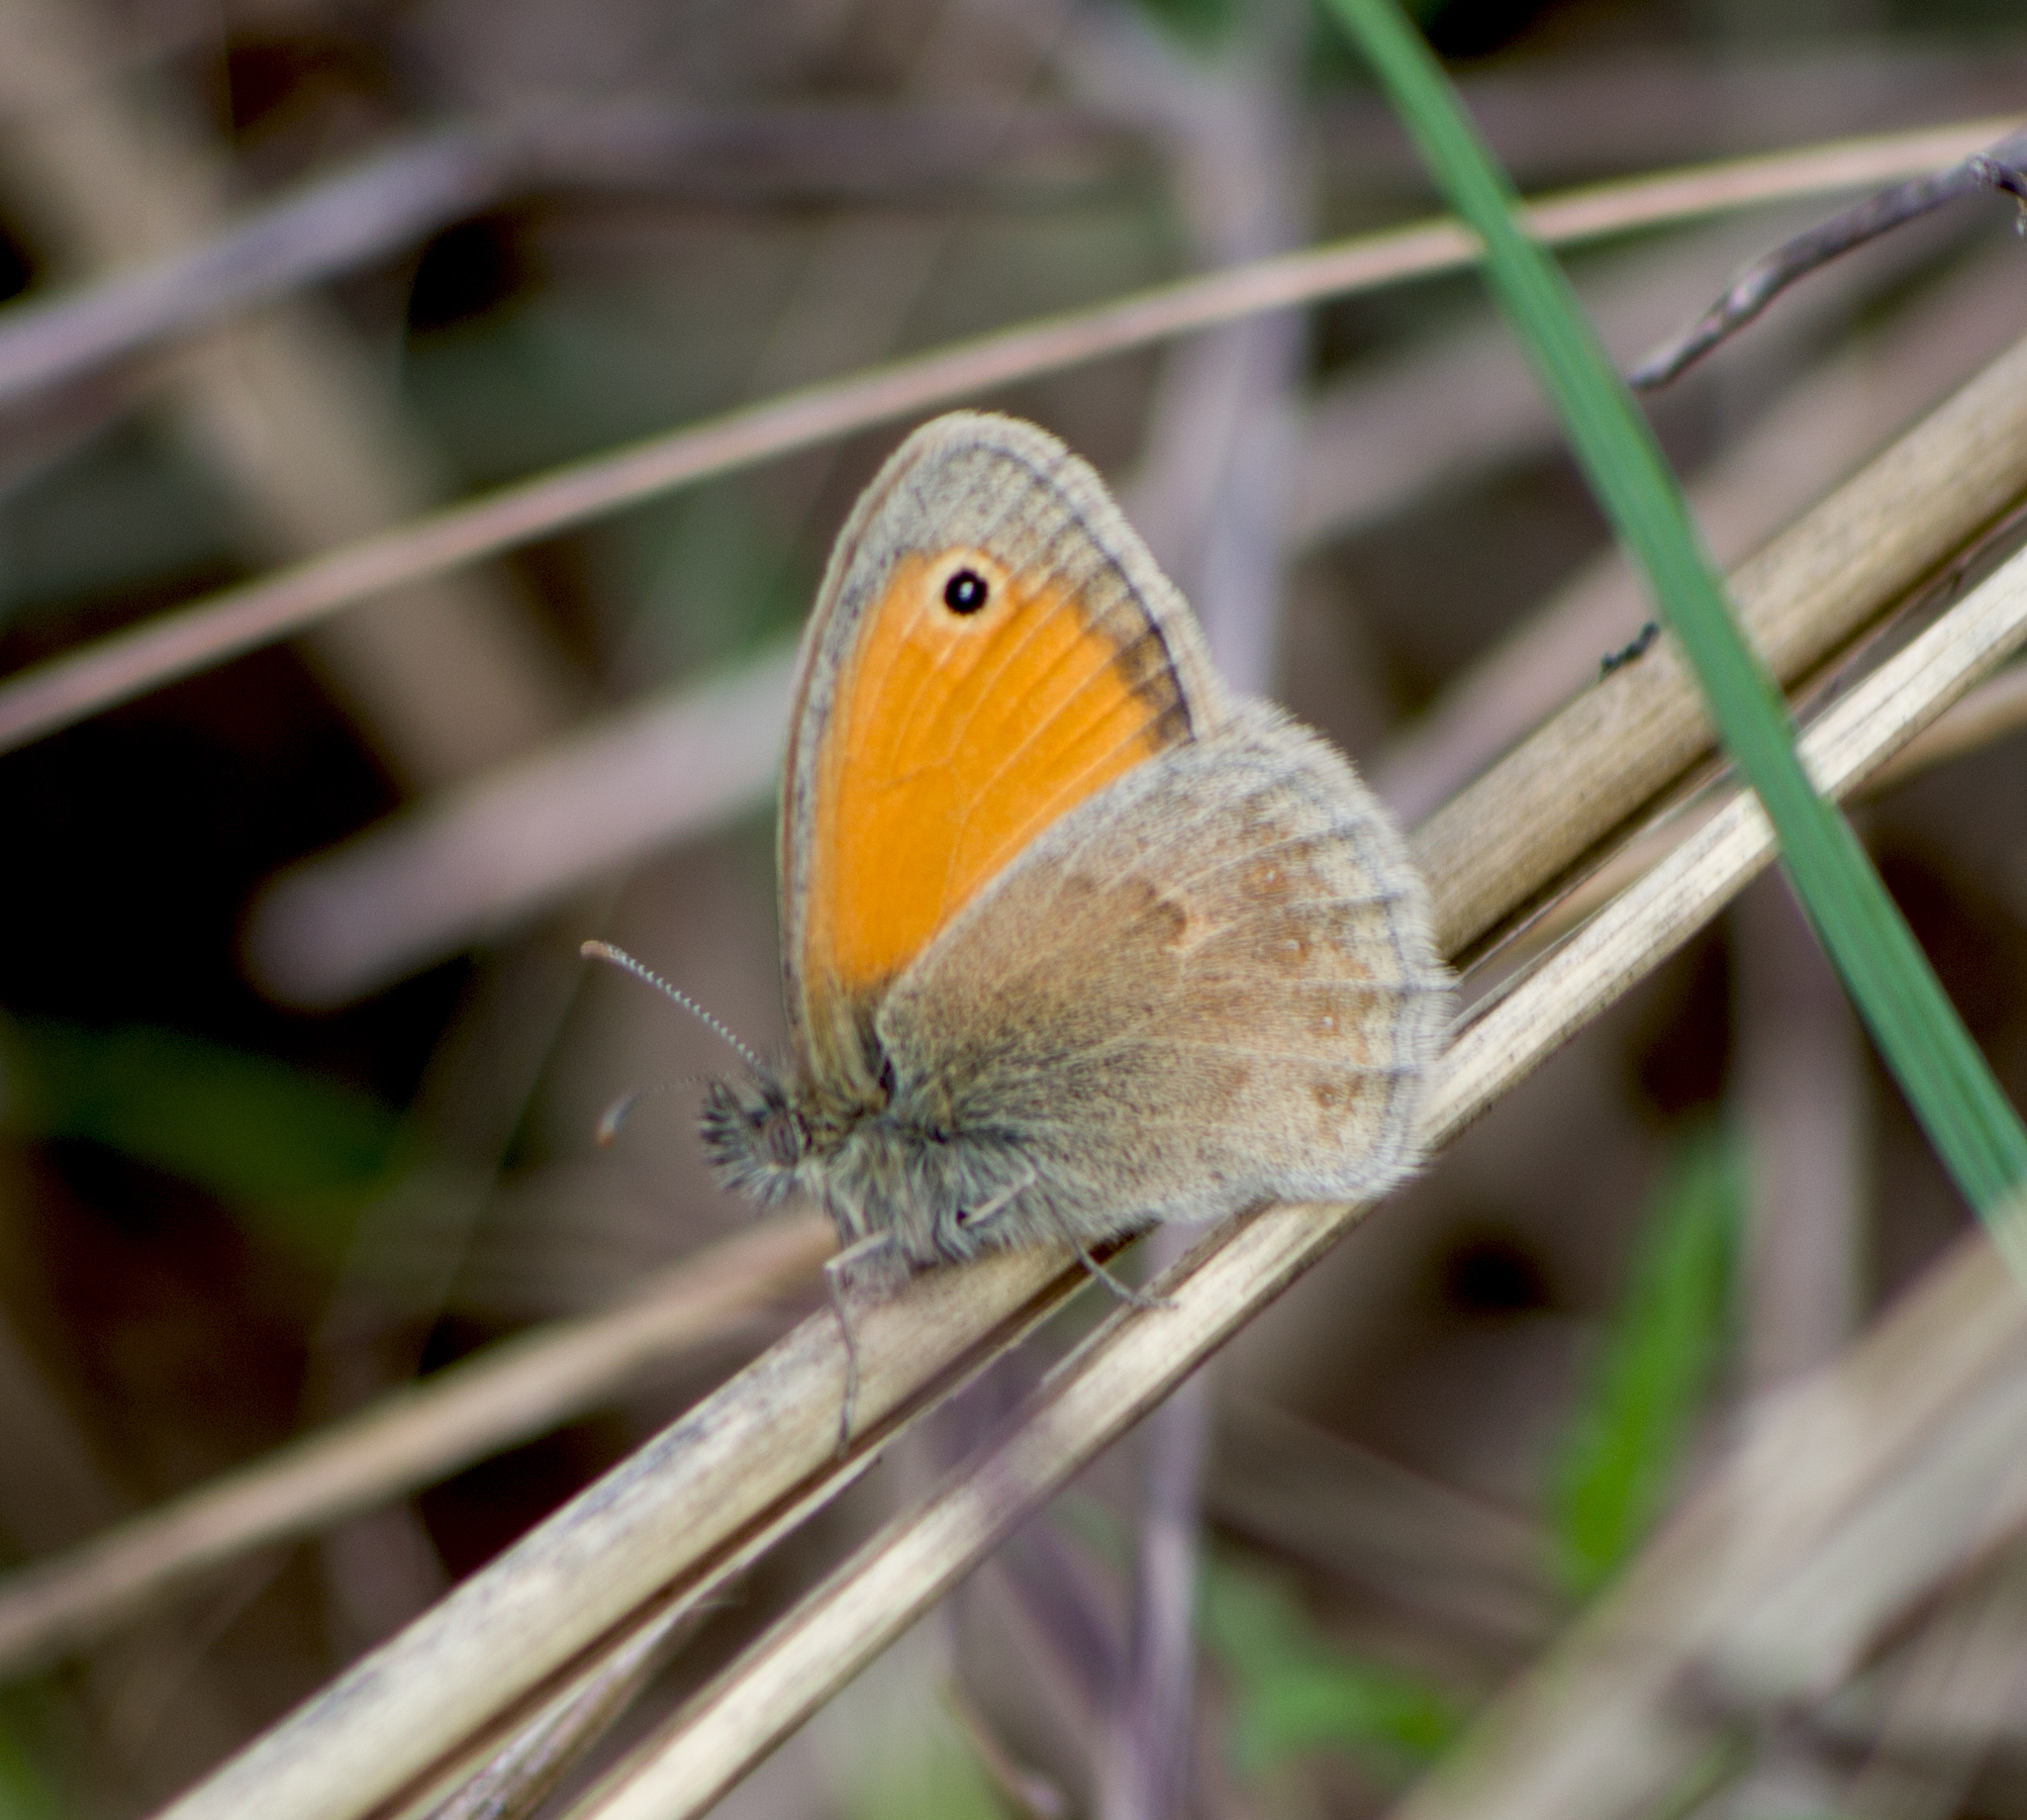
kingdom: Animalia
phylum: Arthropoda
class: Insecta
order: Lepidoptera
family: Nymphalidae
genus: Coenonympha
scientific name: Coenonympha pamphilus
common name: Small heath
